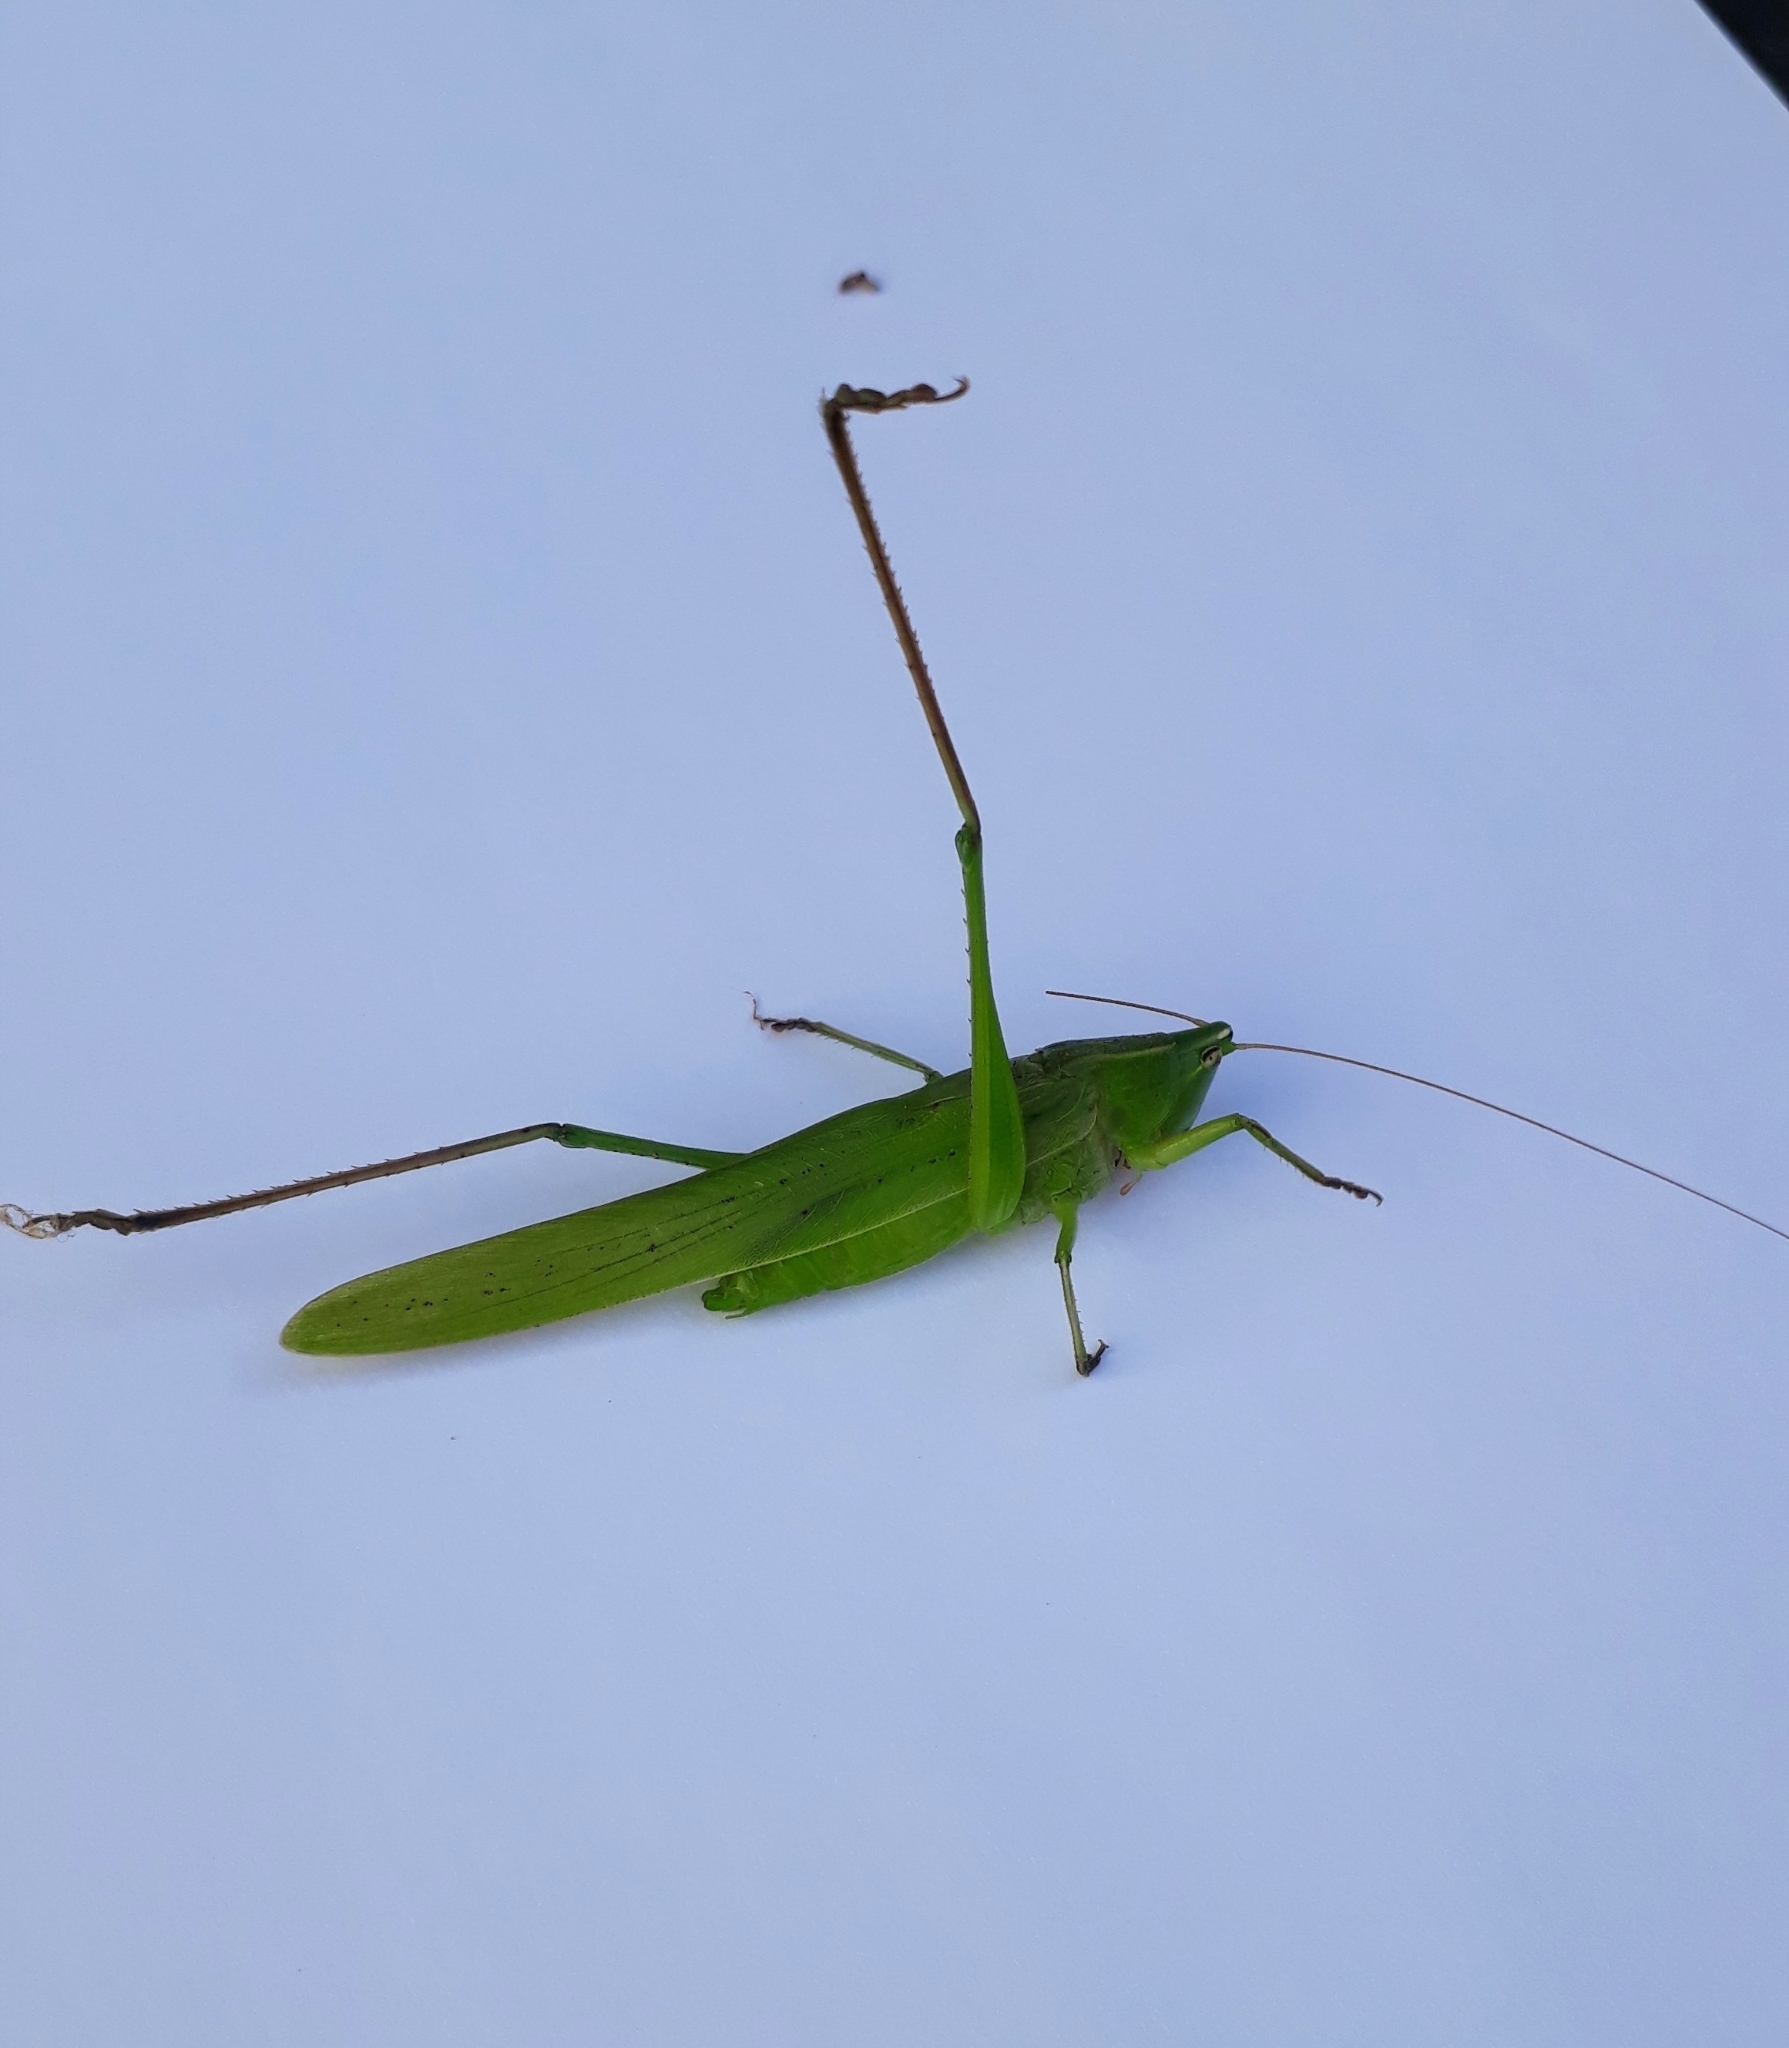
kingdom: Animalia
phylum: Arthropoda
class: Insecta
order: Orthoptera
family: Tettigoniidae
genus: Neoconocephalus
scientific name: Neoconocephalus viridis
